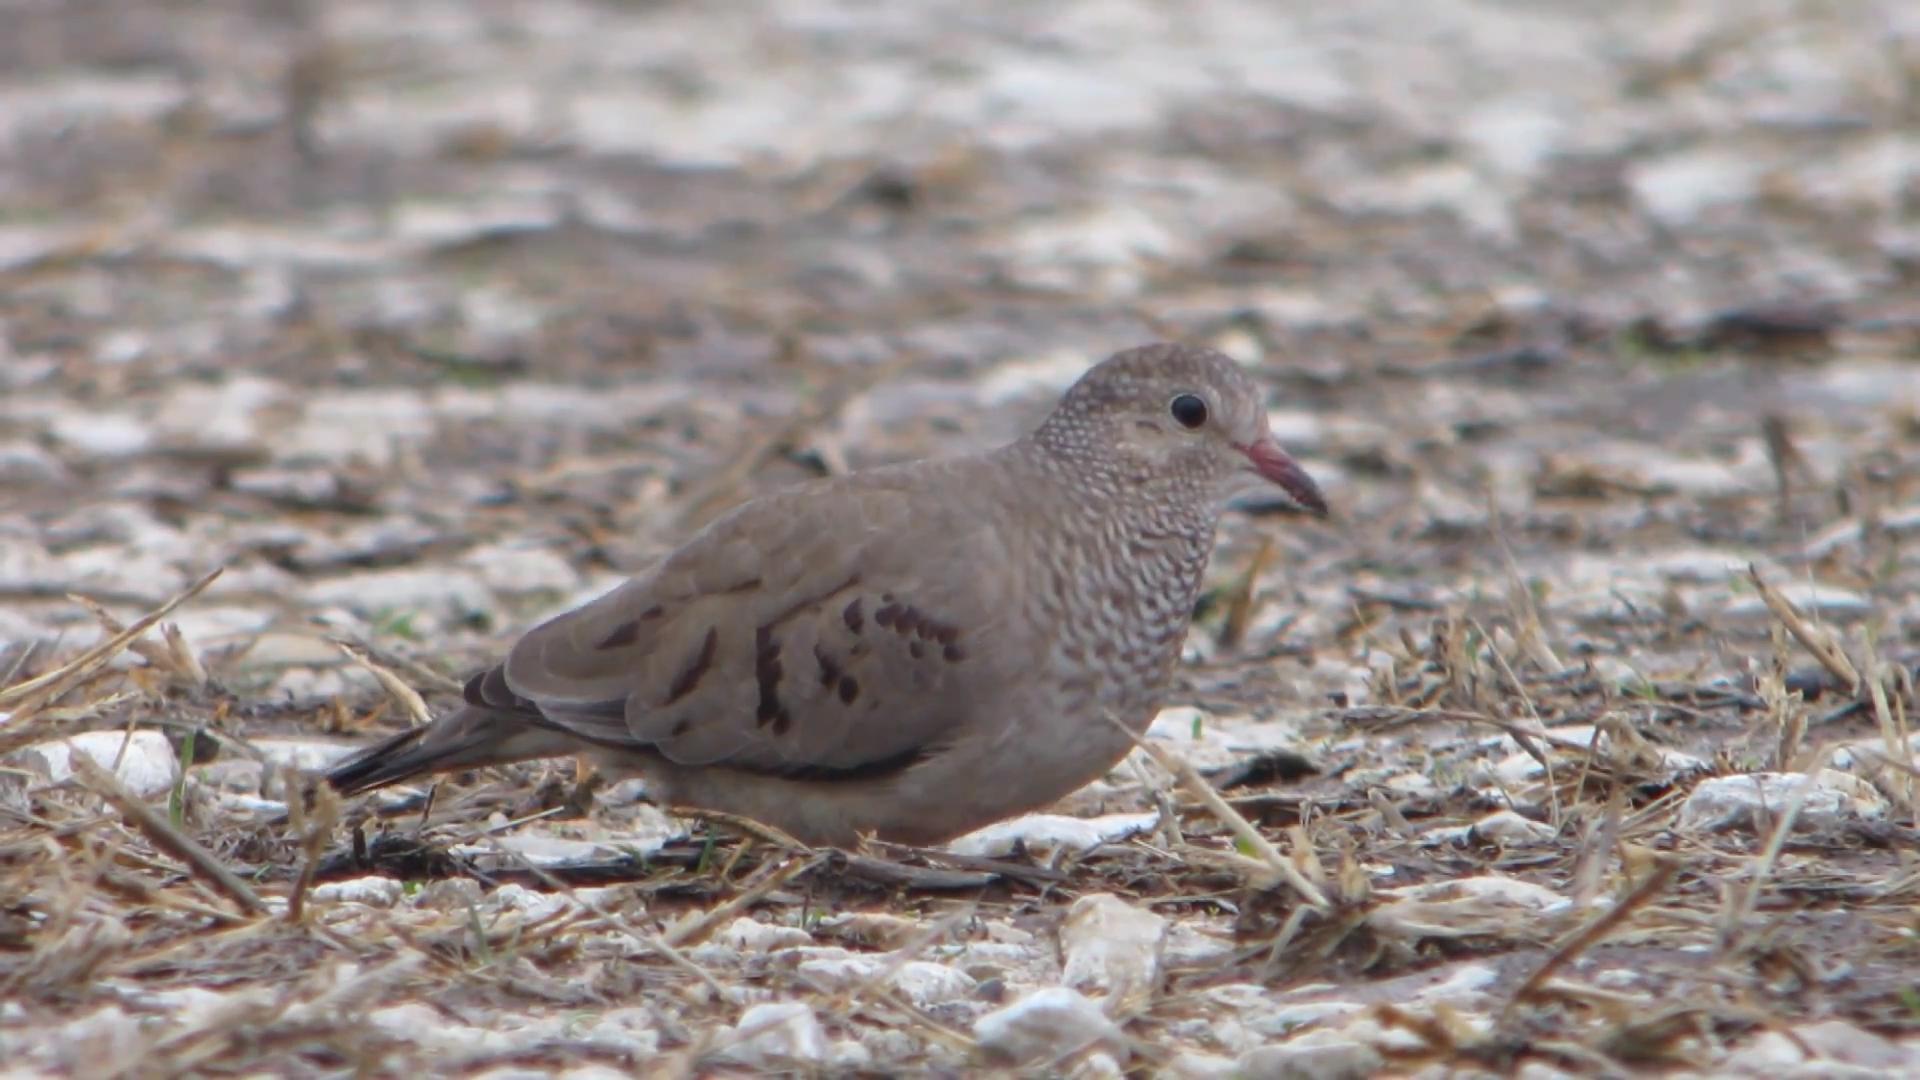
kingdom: Animalia
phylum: Chordata
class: Aves
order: Columbiformes
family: Columbidae
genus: Columbina
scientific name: Columbina passerina
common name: Common ground-dove
